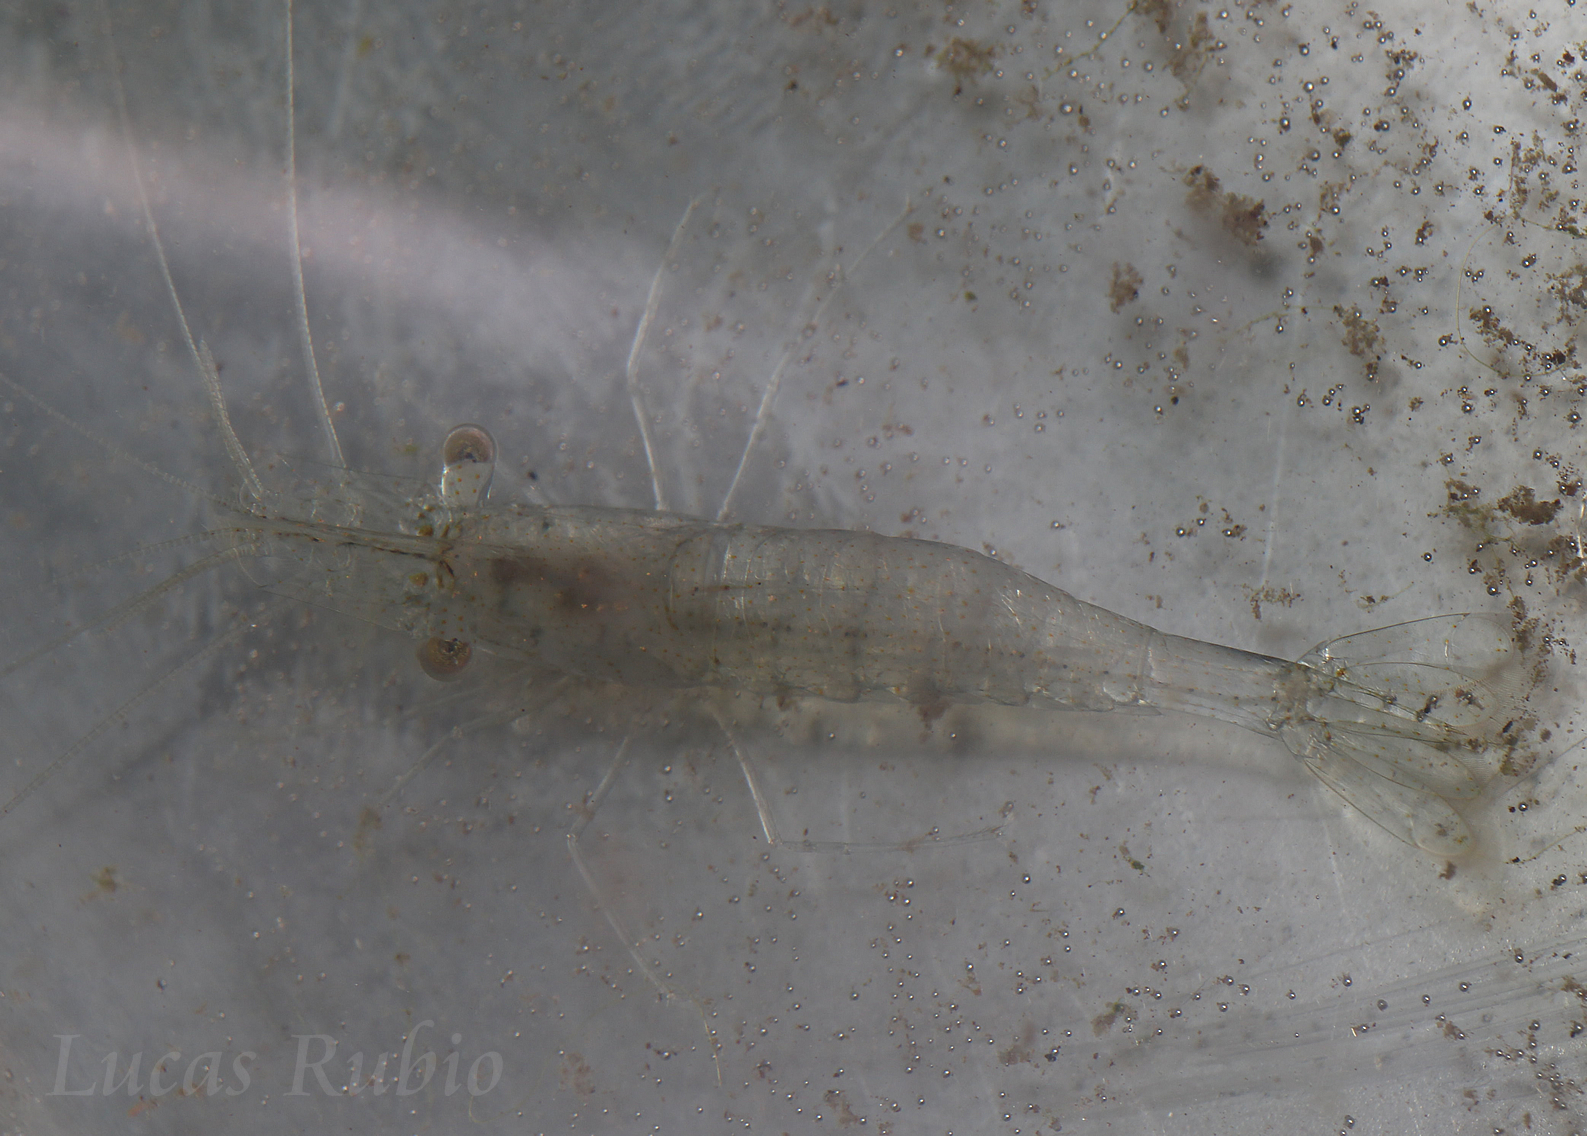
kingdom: Animalia
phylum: Arthropoda
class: Malacostraca
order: Decapoda
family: Palaemonidae
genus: Palaemon
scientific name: Palaemon argentinus
